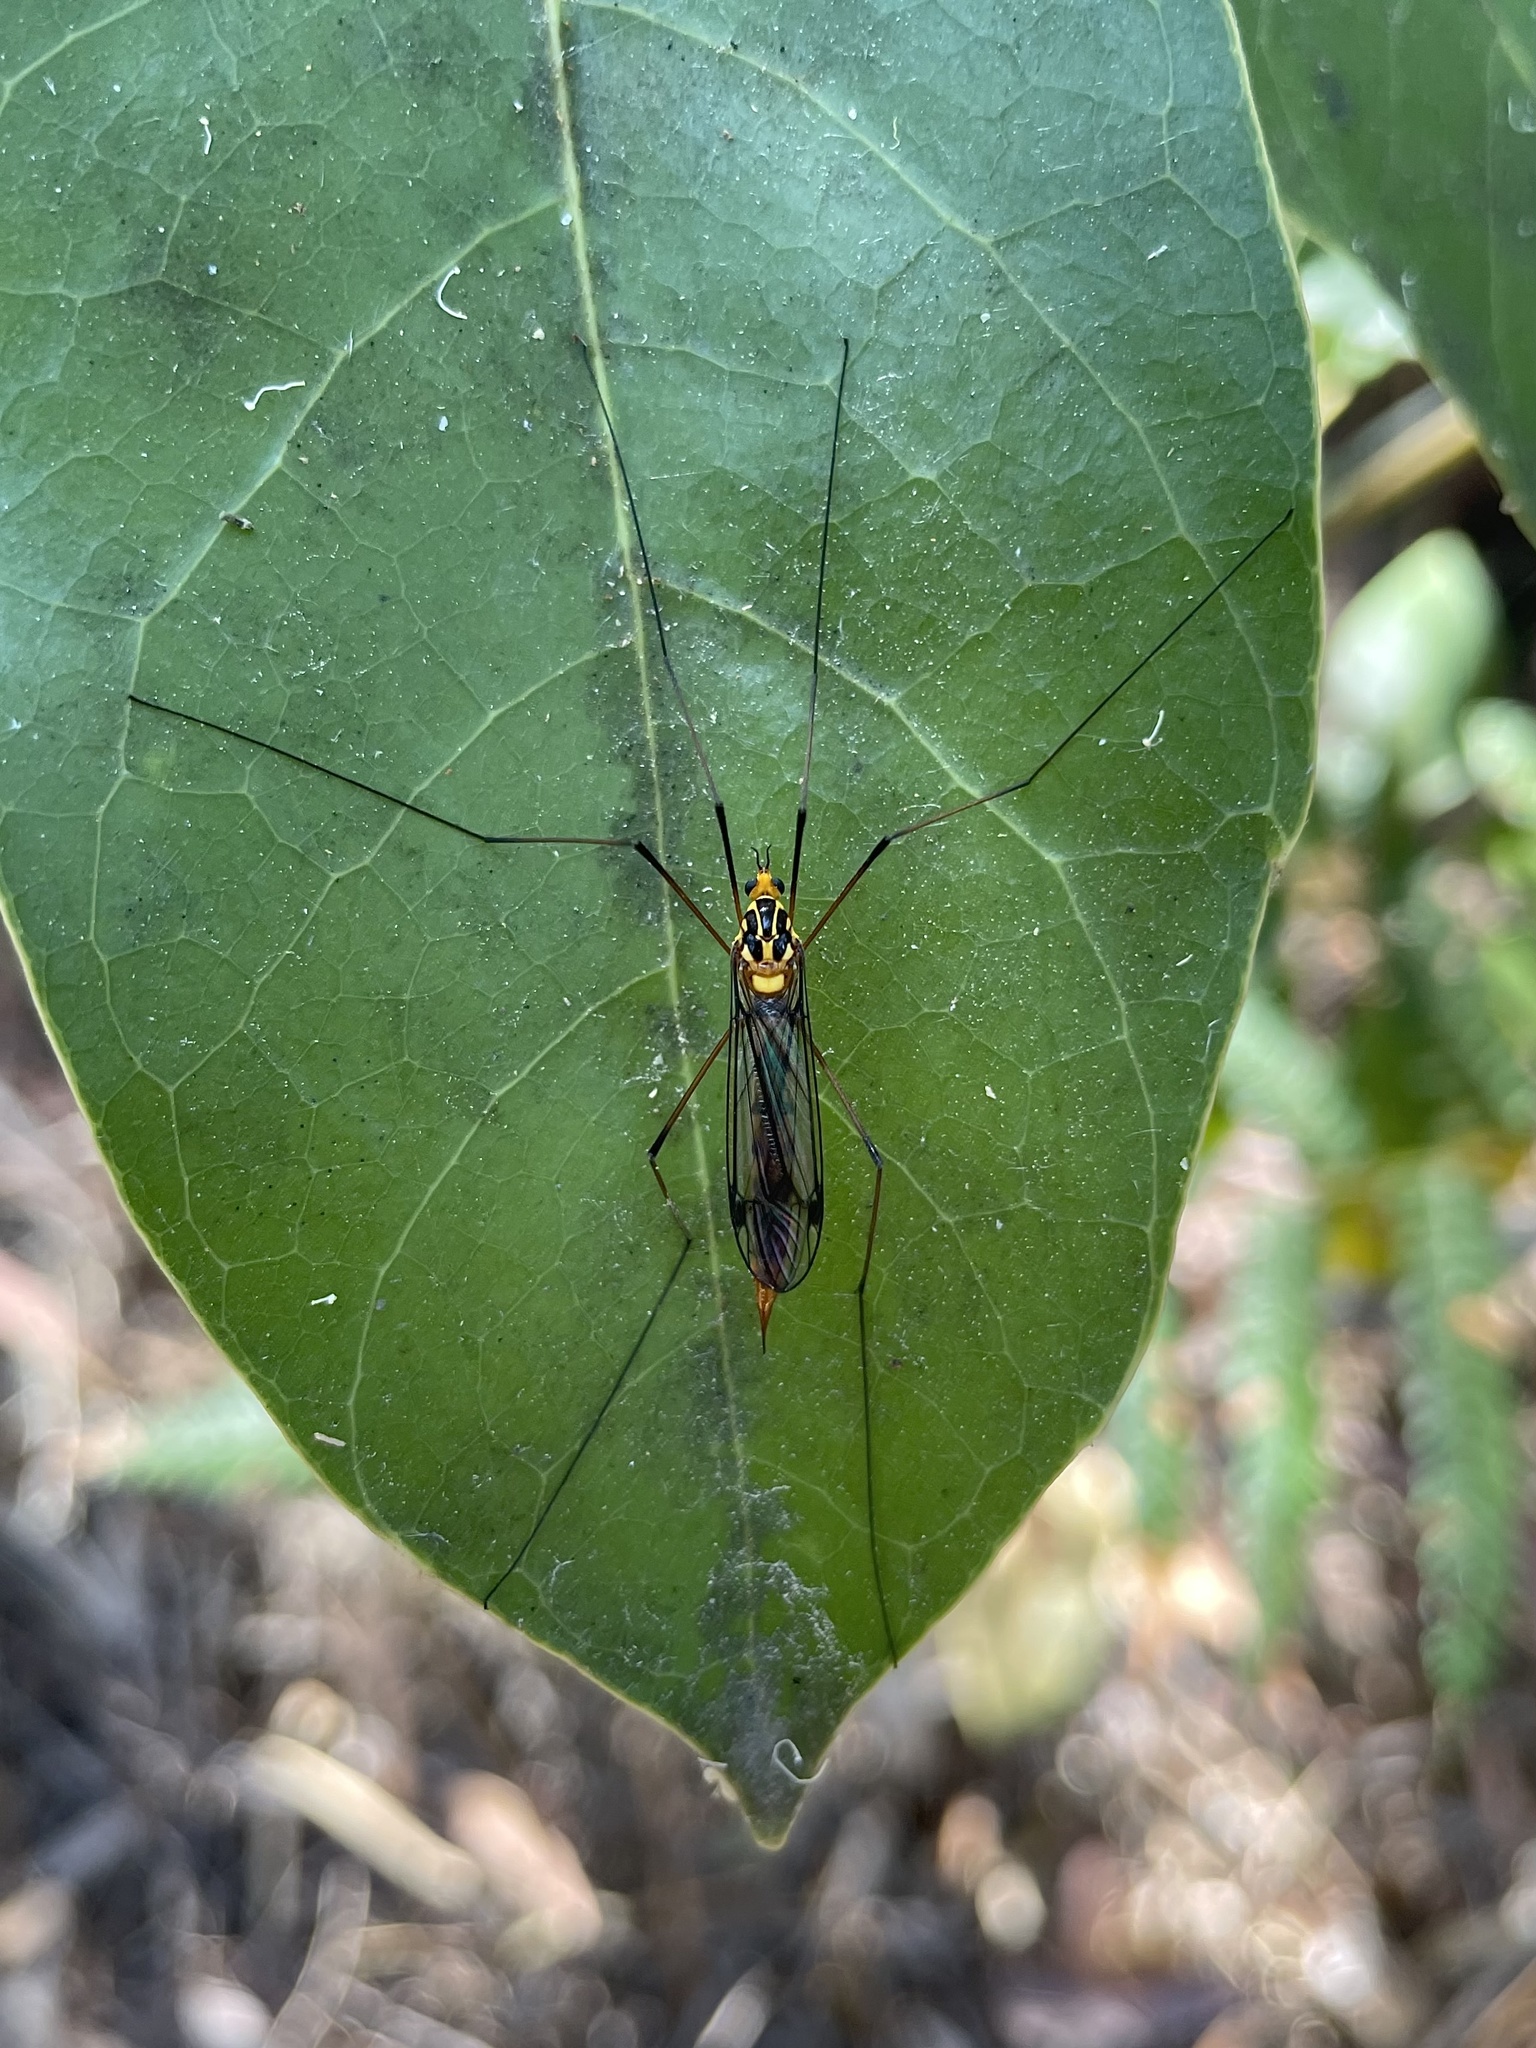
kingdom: Animalia
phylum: Arthropoda
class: Insecta
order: Diptera
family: Tipulidae
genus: Nephrotoma
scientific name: Nephrotoma australasiae
